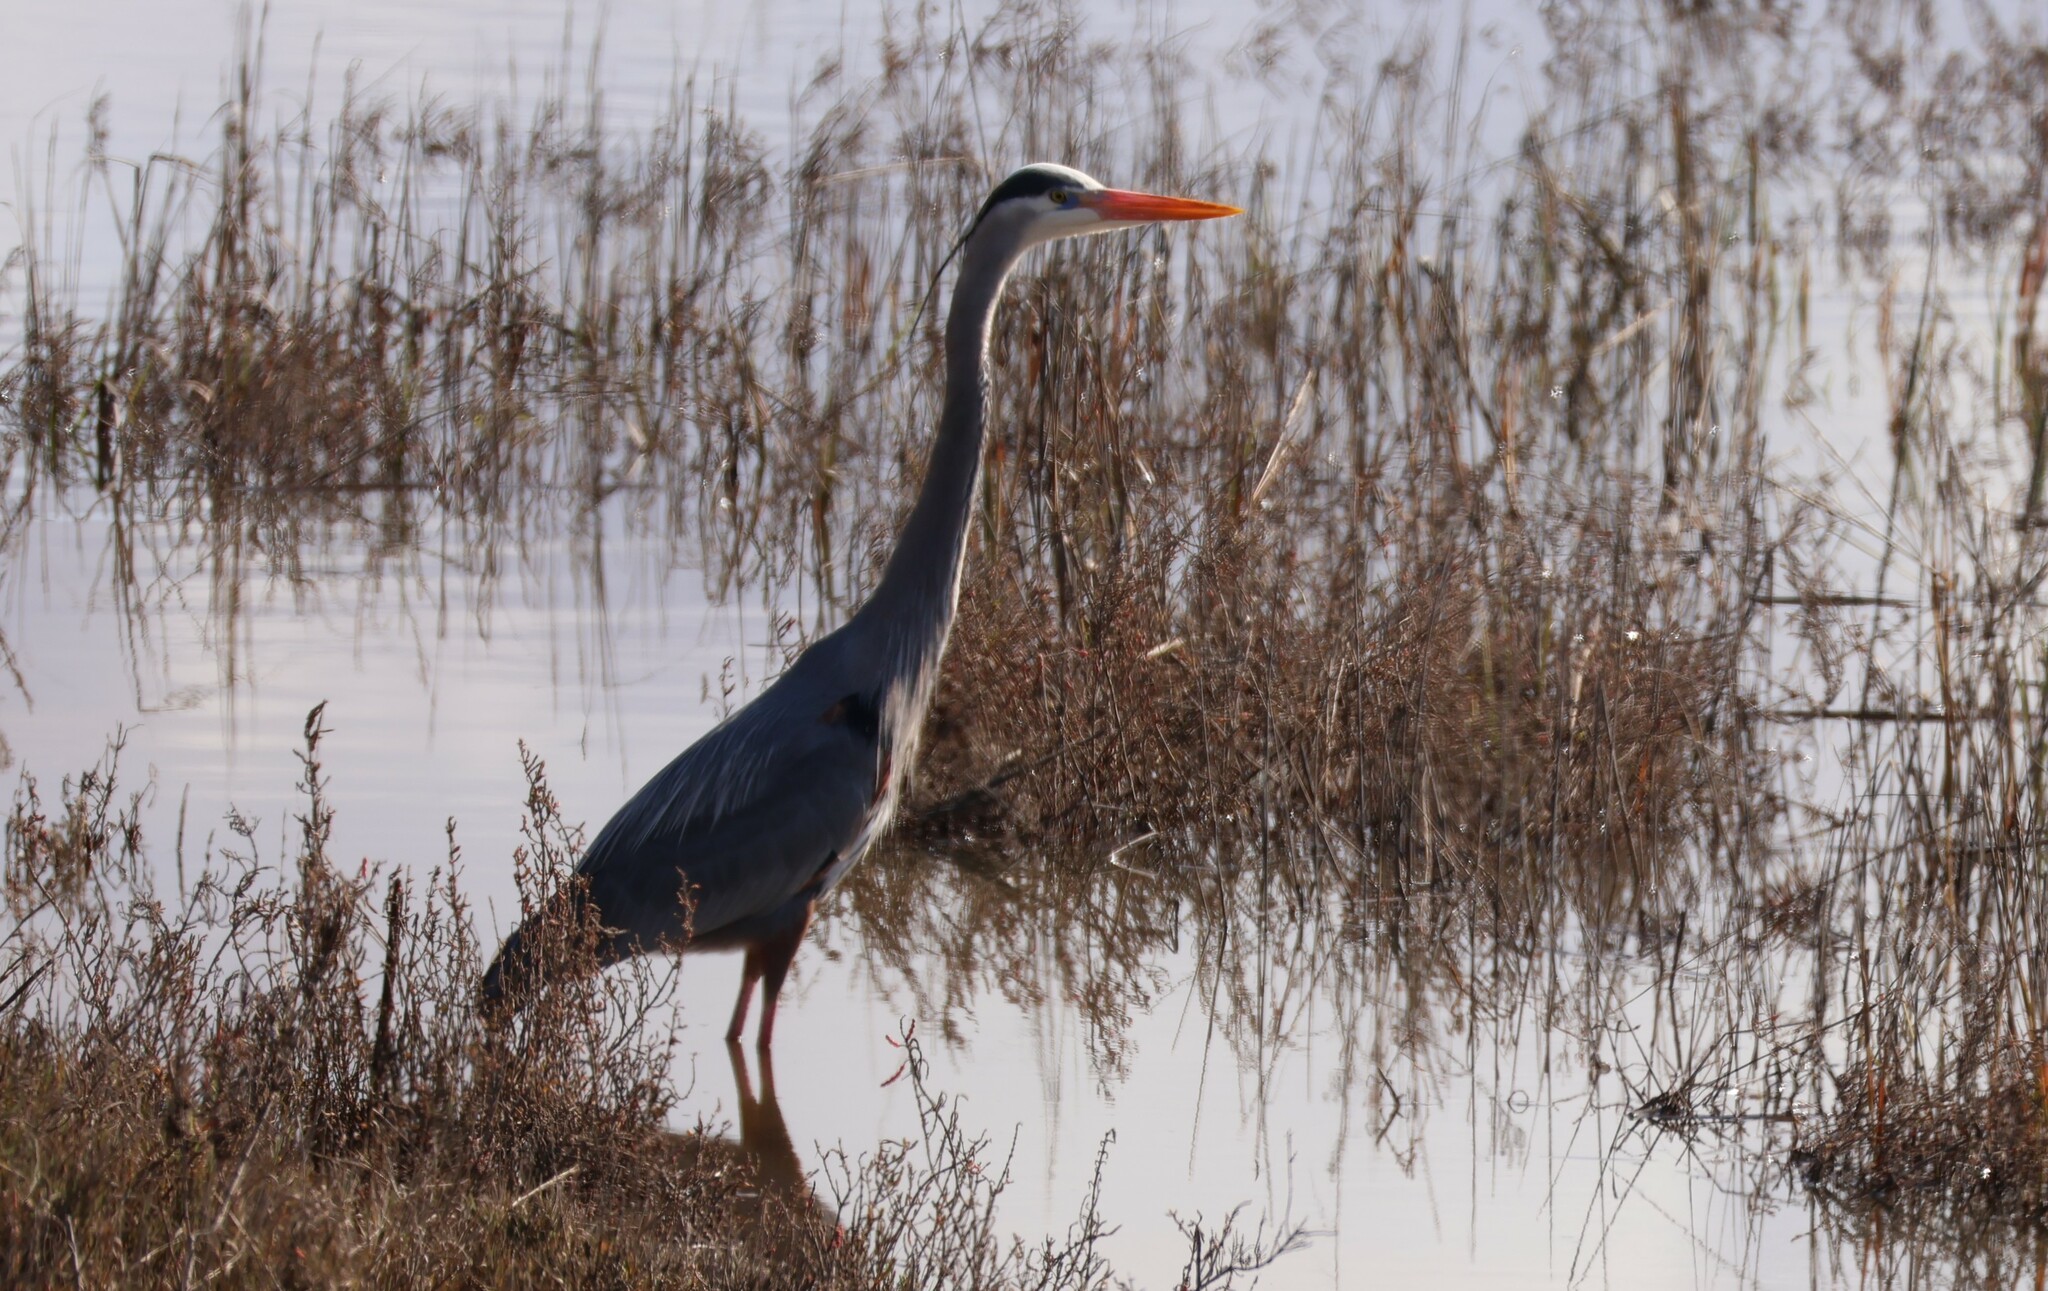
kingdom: Animalia
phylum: Chordata
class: Aves
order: Pelecaniformes
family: Ardeidae
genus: Ardea
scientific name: Ardea herodias
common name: Great blue heron
